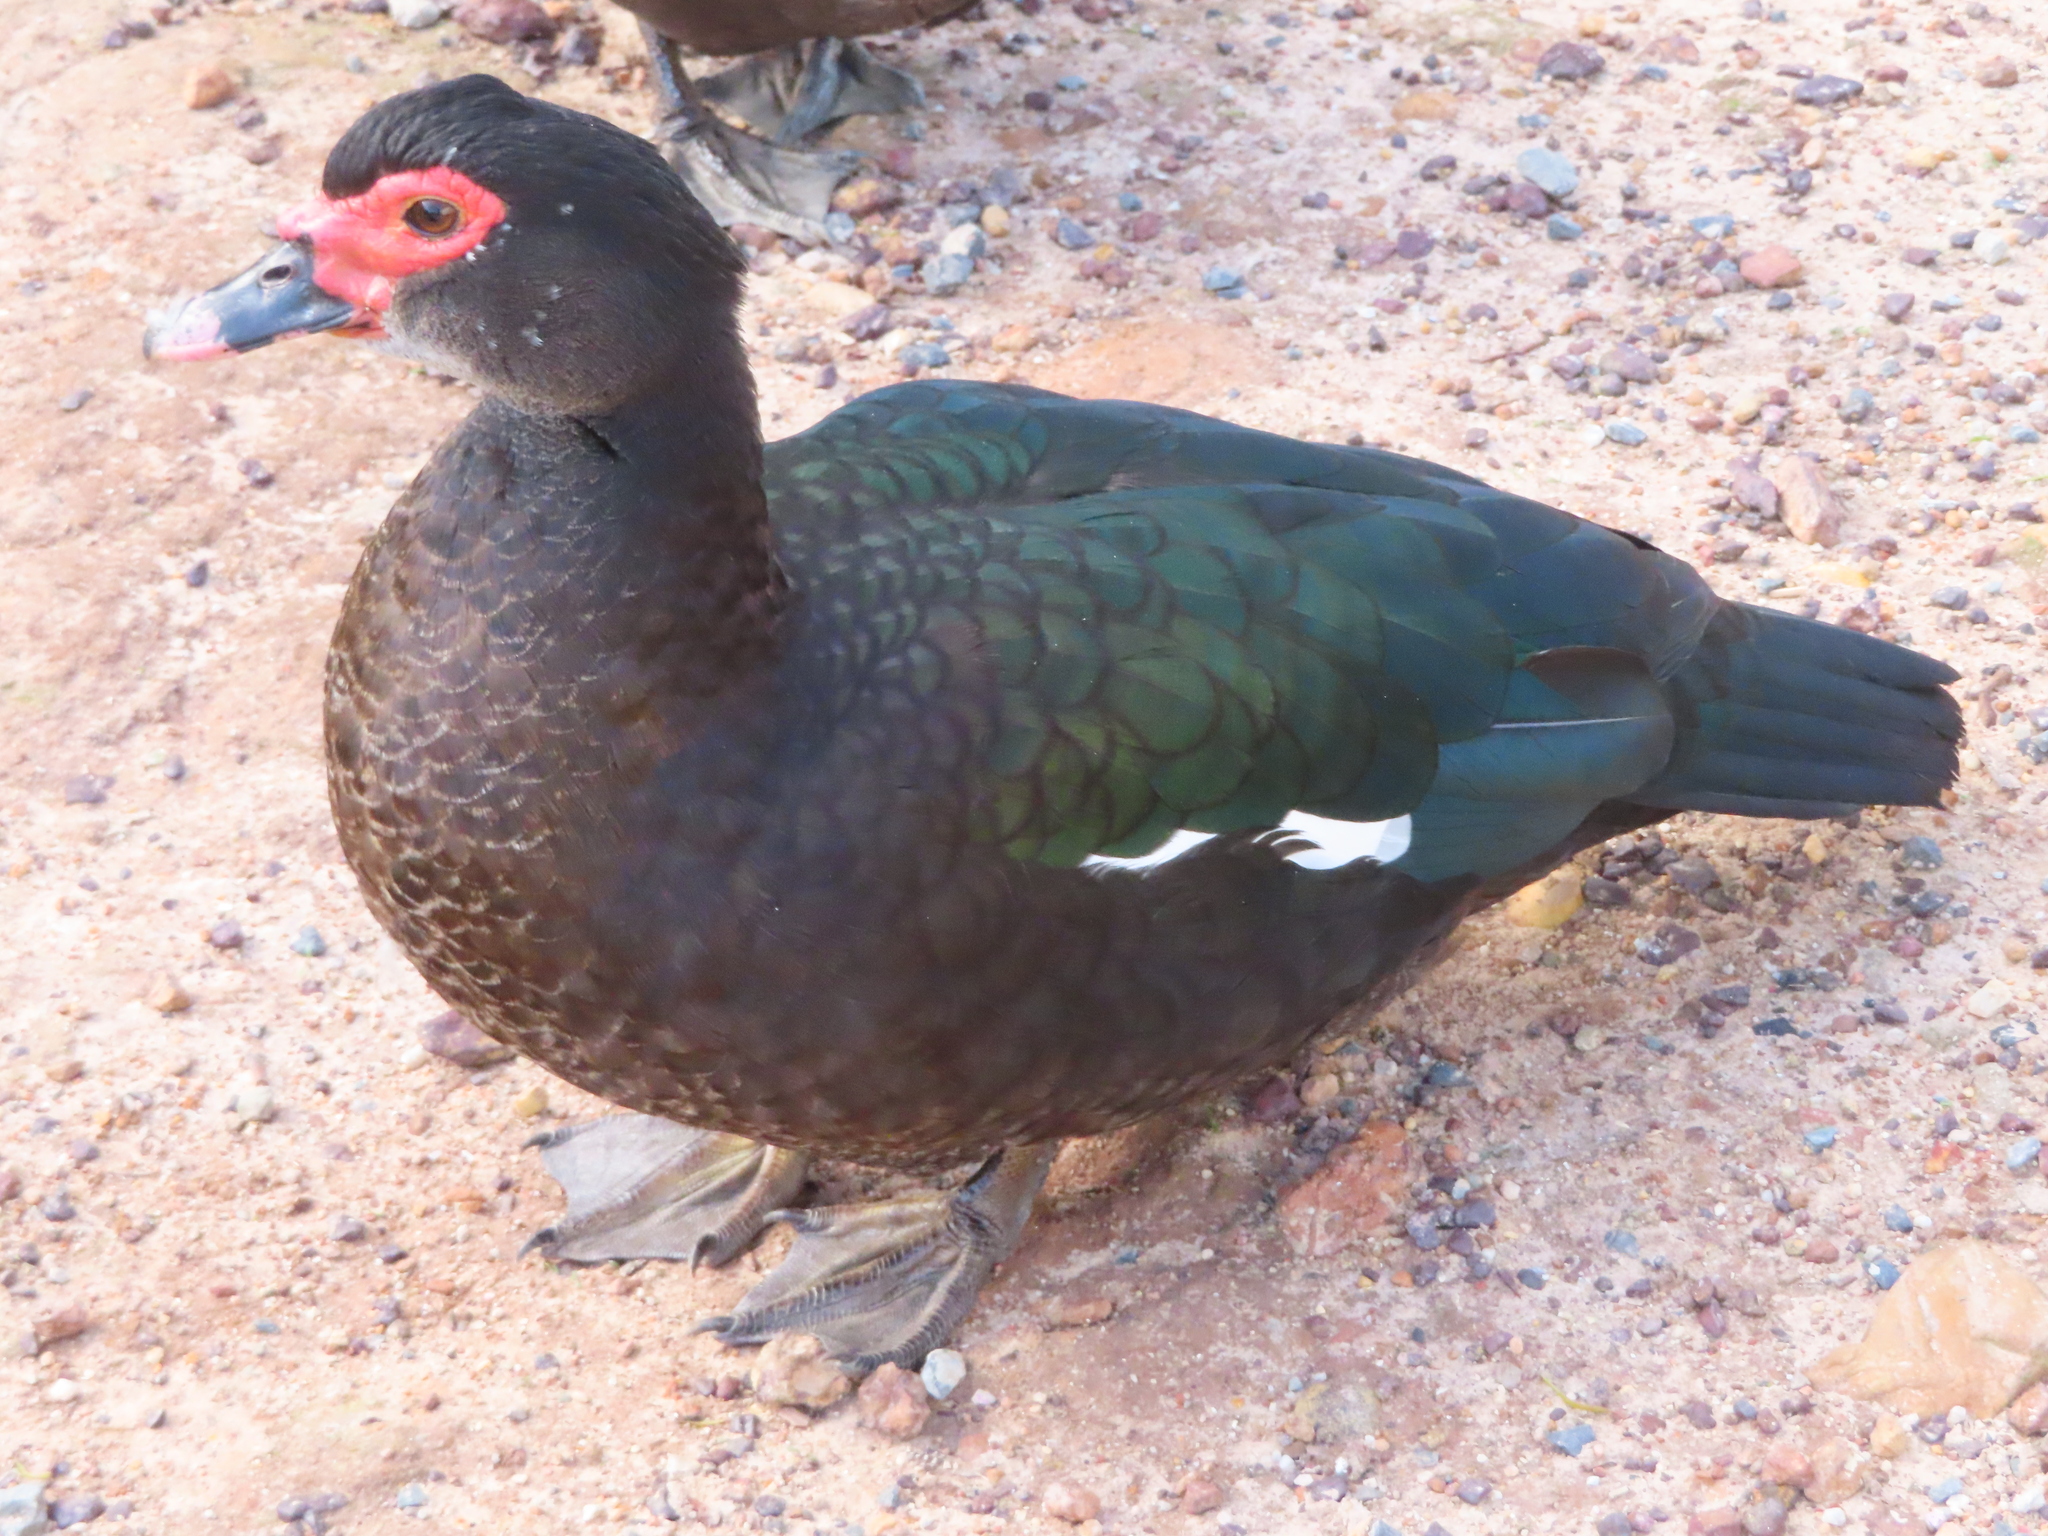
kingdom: Animalia
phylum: Chordata
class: Aves
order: Anseriformes
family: Anatidae
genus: Cairina
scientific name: Cairina moschata
